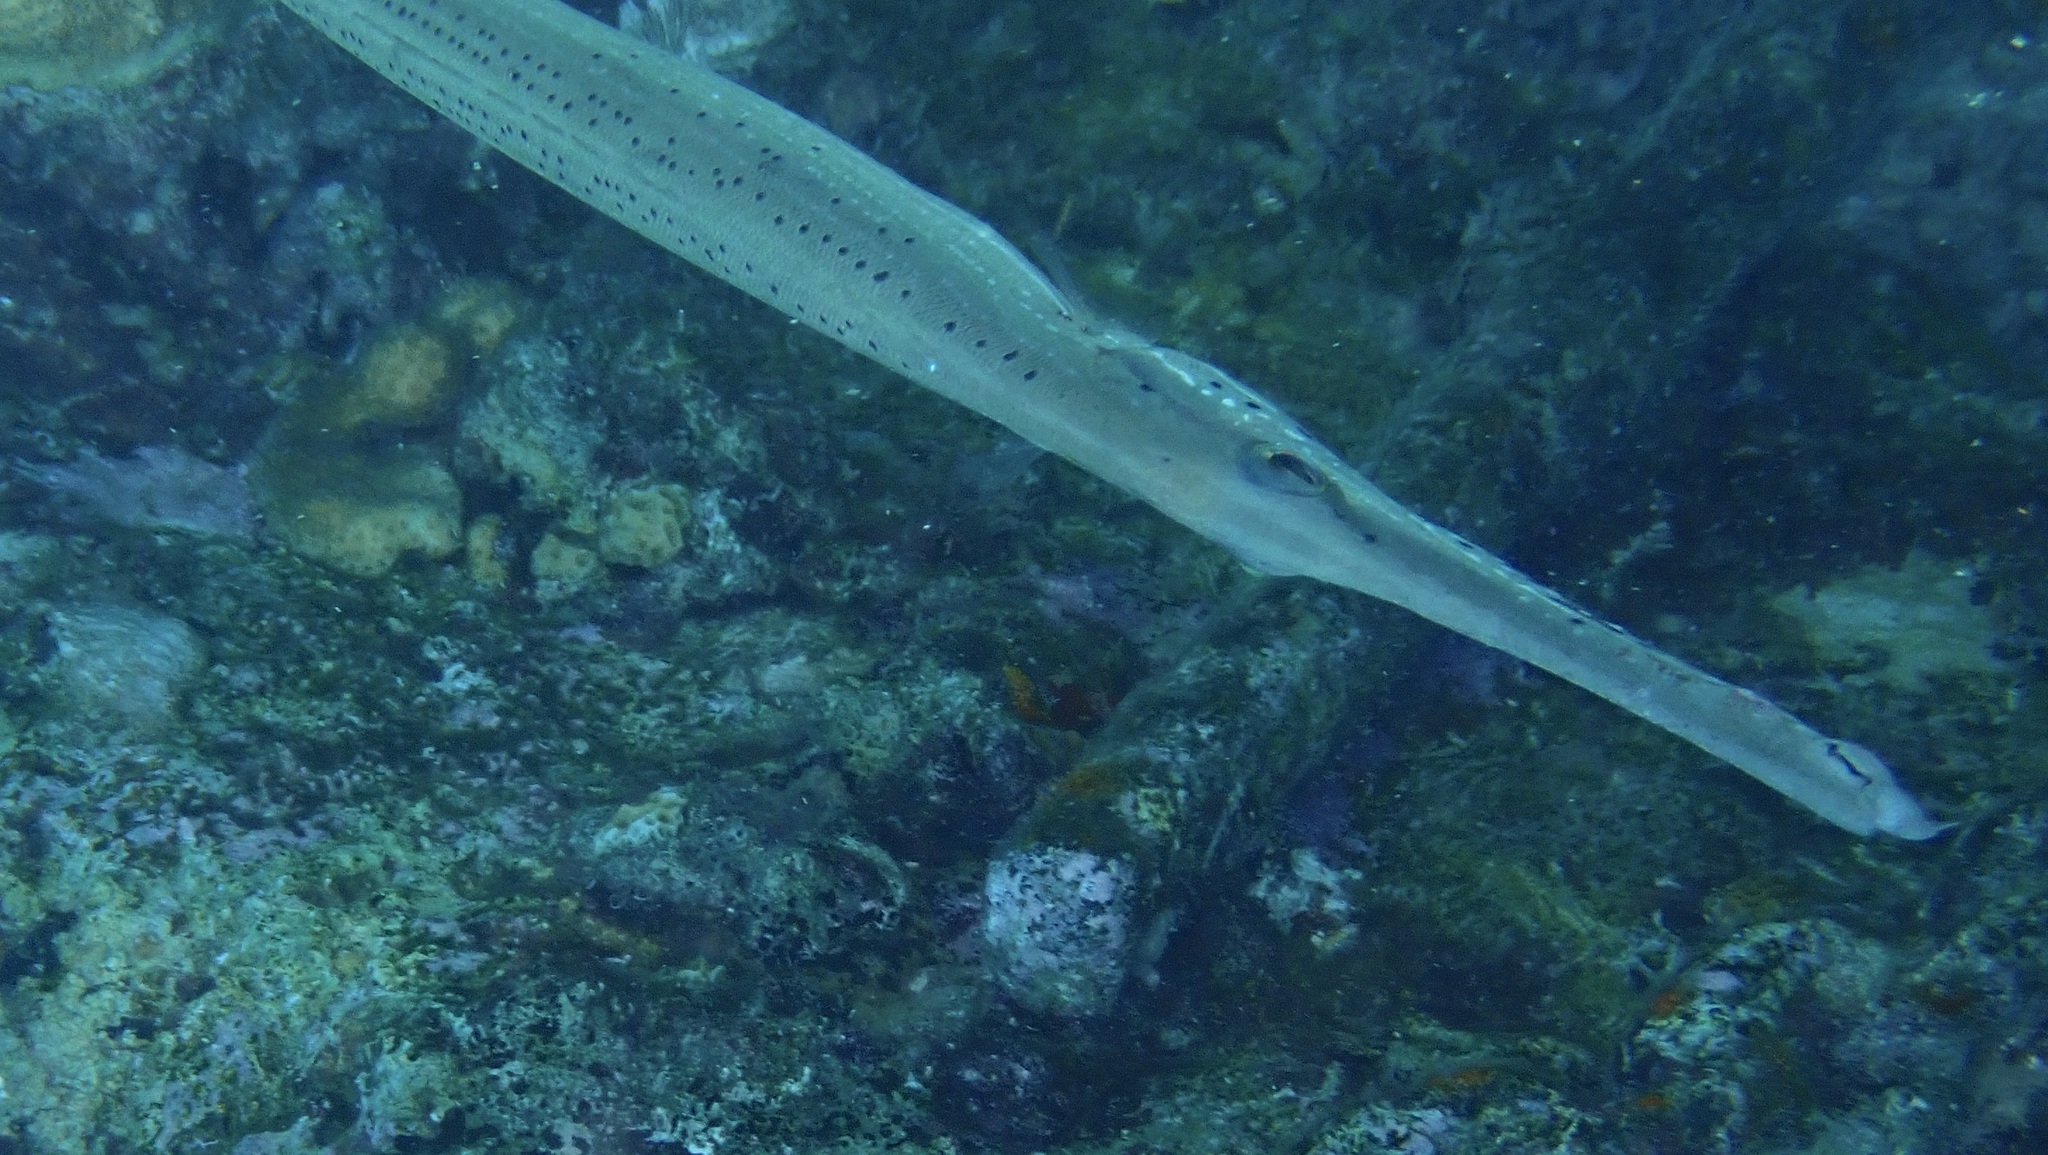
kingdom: Animalia
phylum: Chordata
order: Syngnathiformes
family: Aulostomidae
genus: Aulostomus
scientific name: Aulostomus maculatus
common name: West atlantic trumpetfish
